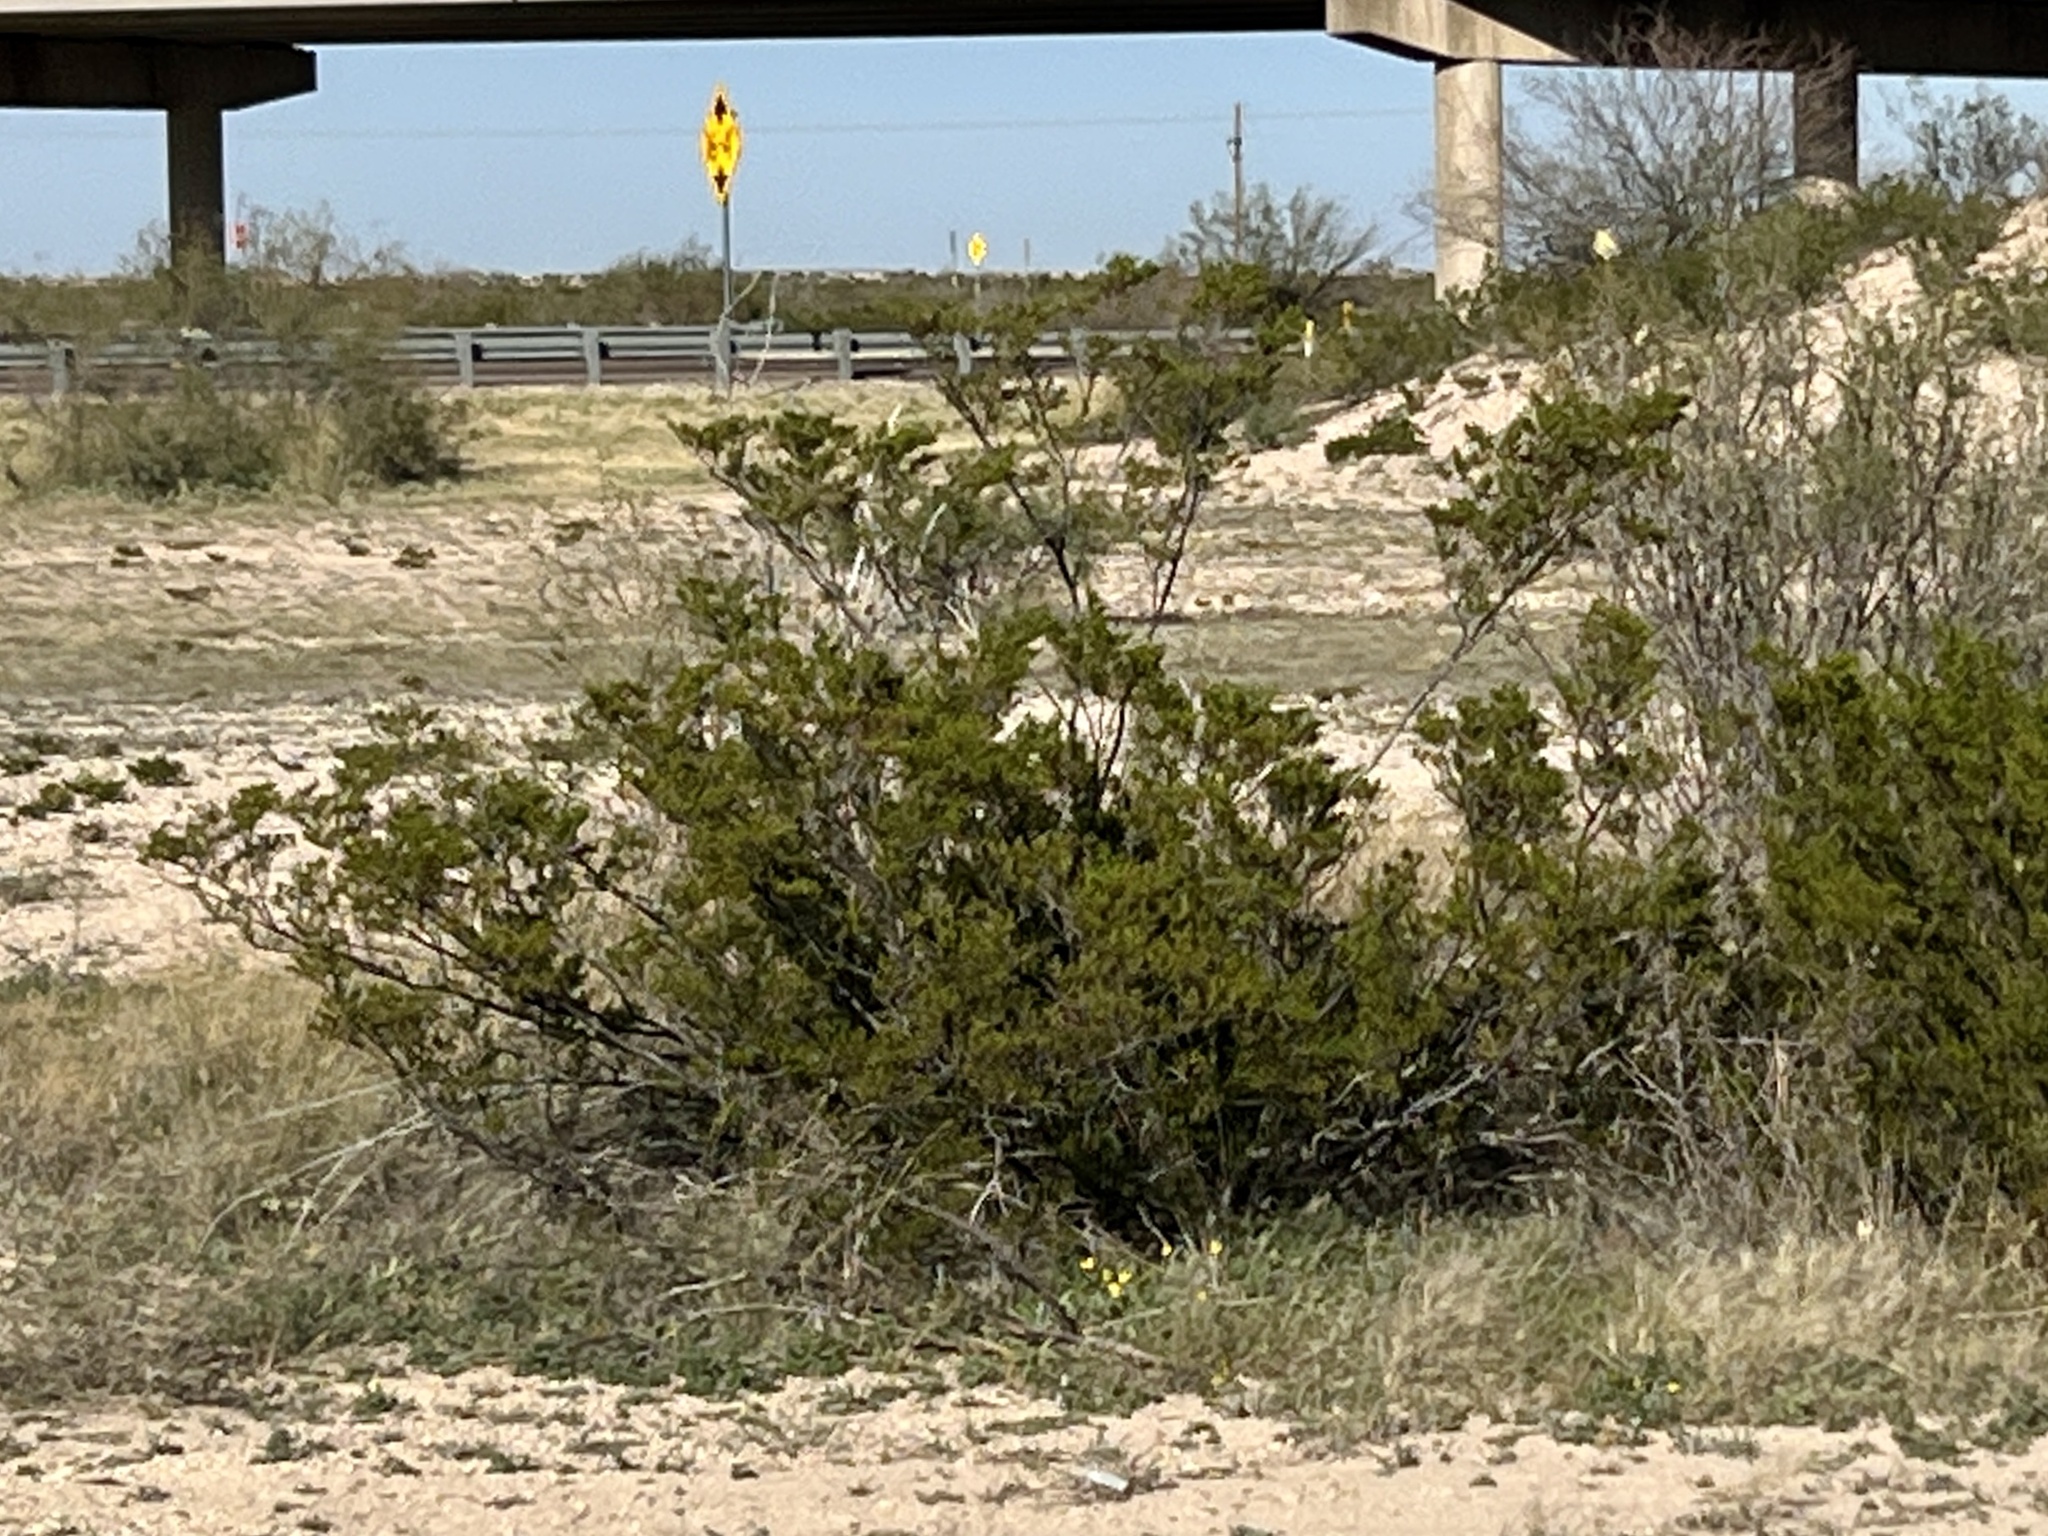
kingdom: Plantae
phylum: Tracheophyta
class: Magnoliopsida
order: Zygophyllales
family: Zygophyllaceae
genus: Larrea
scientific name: Larrea tridentata
